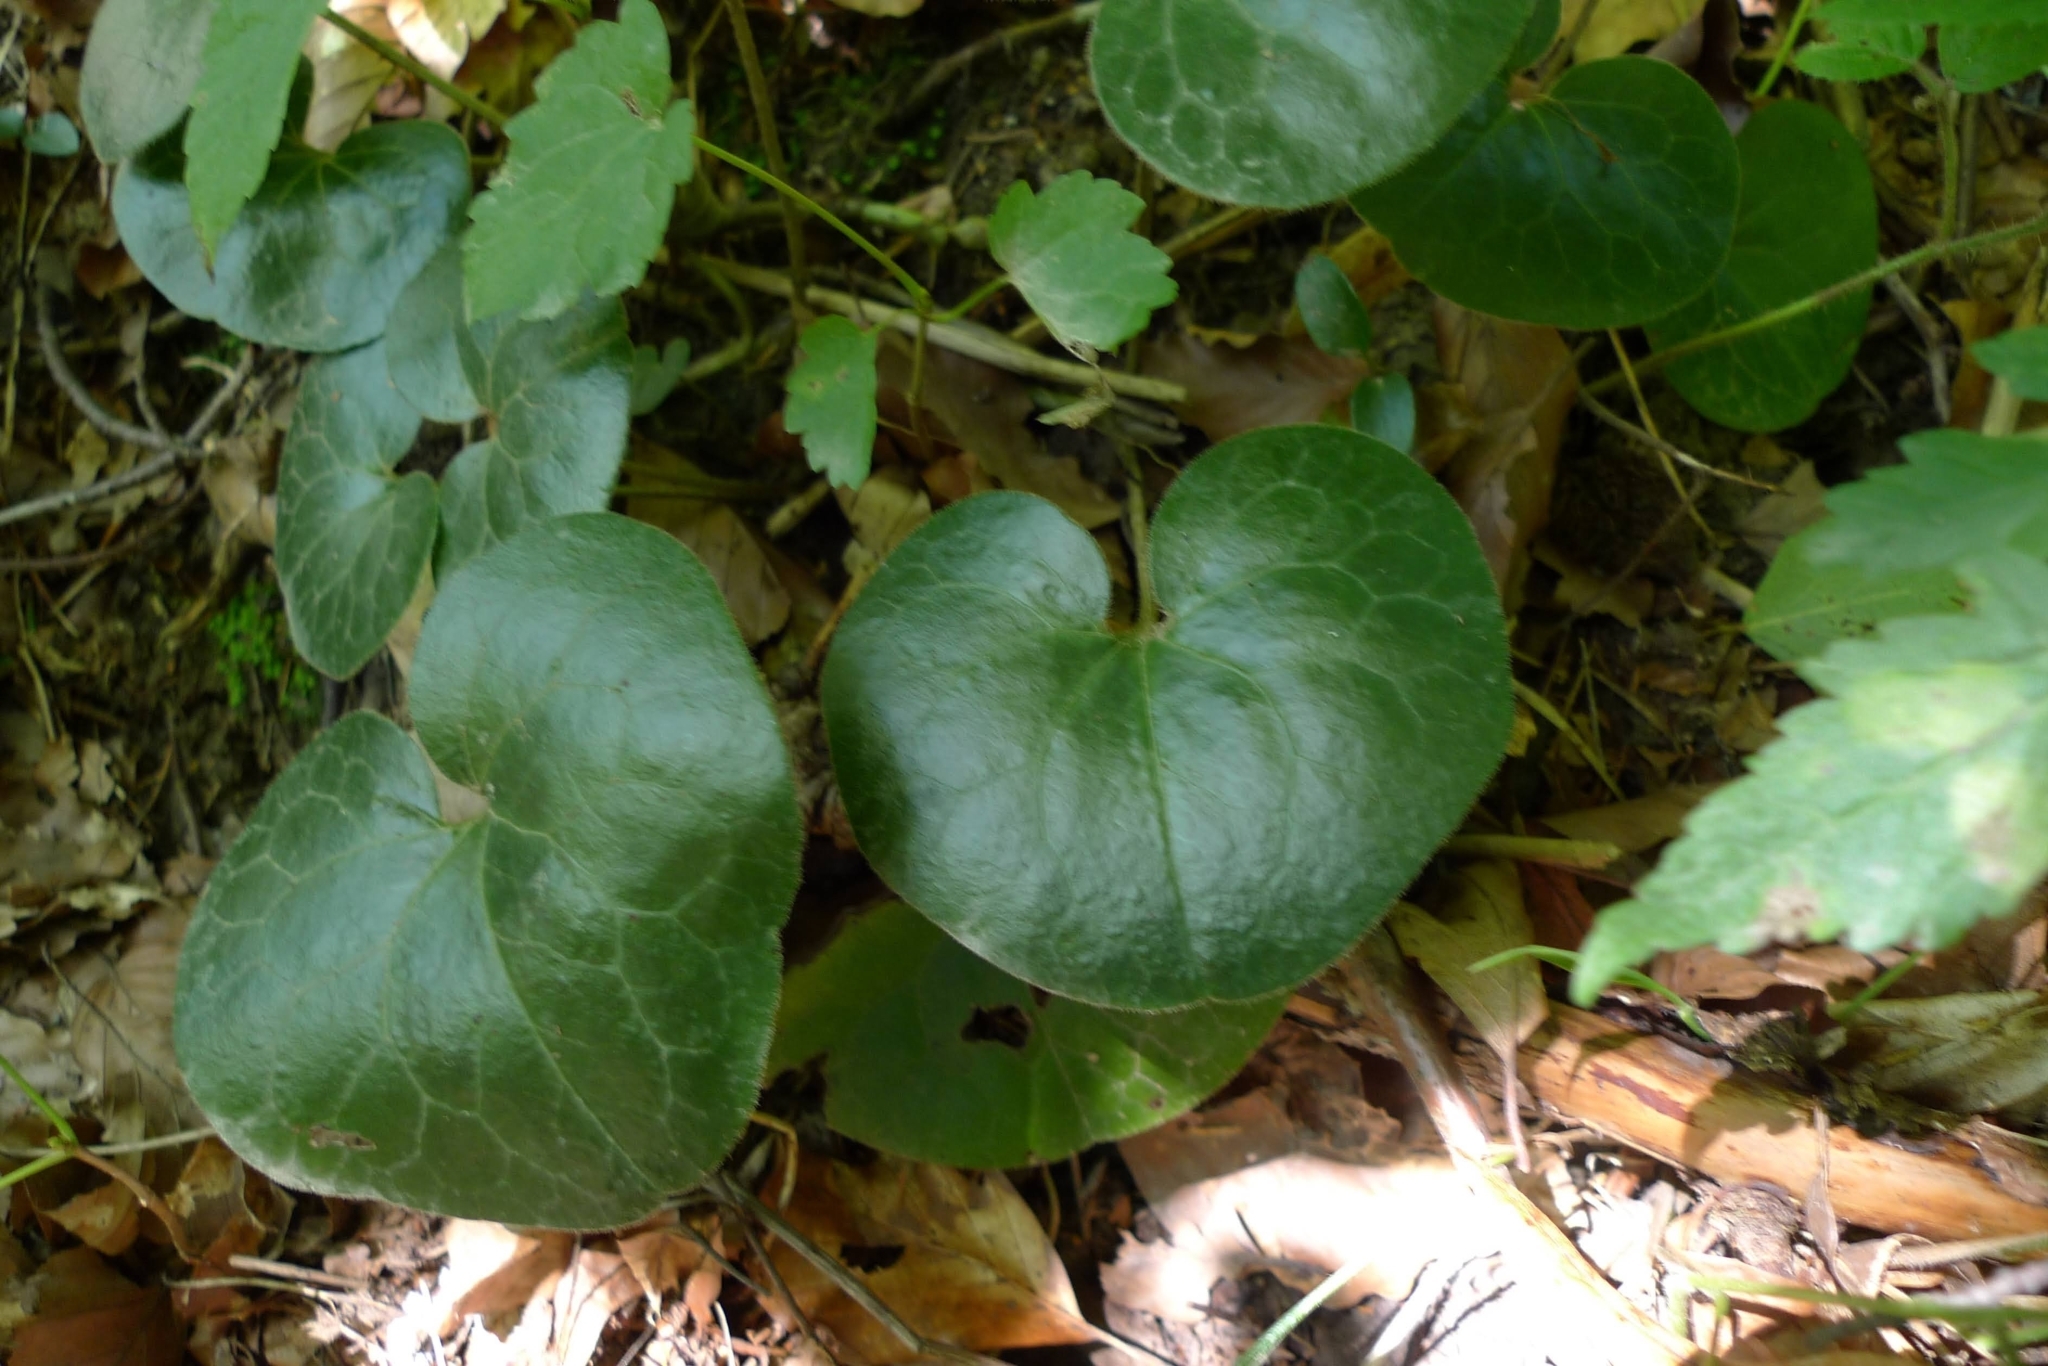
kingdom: Plantae
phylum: Tracheophyta
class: Magnoliopsida
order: Piperales
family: Aristolochiaceae
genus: Asarum
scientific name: Asarum europaeum
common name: Asarabacca
